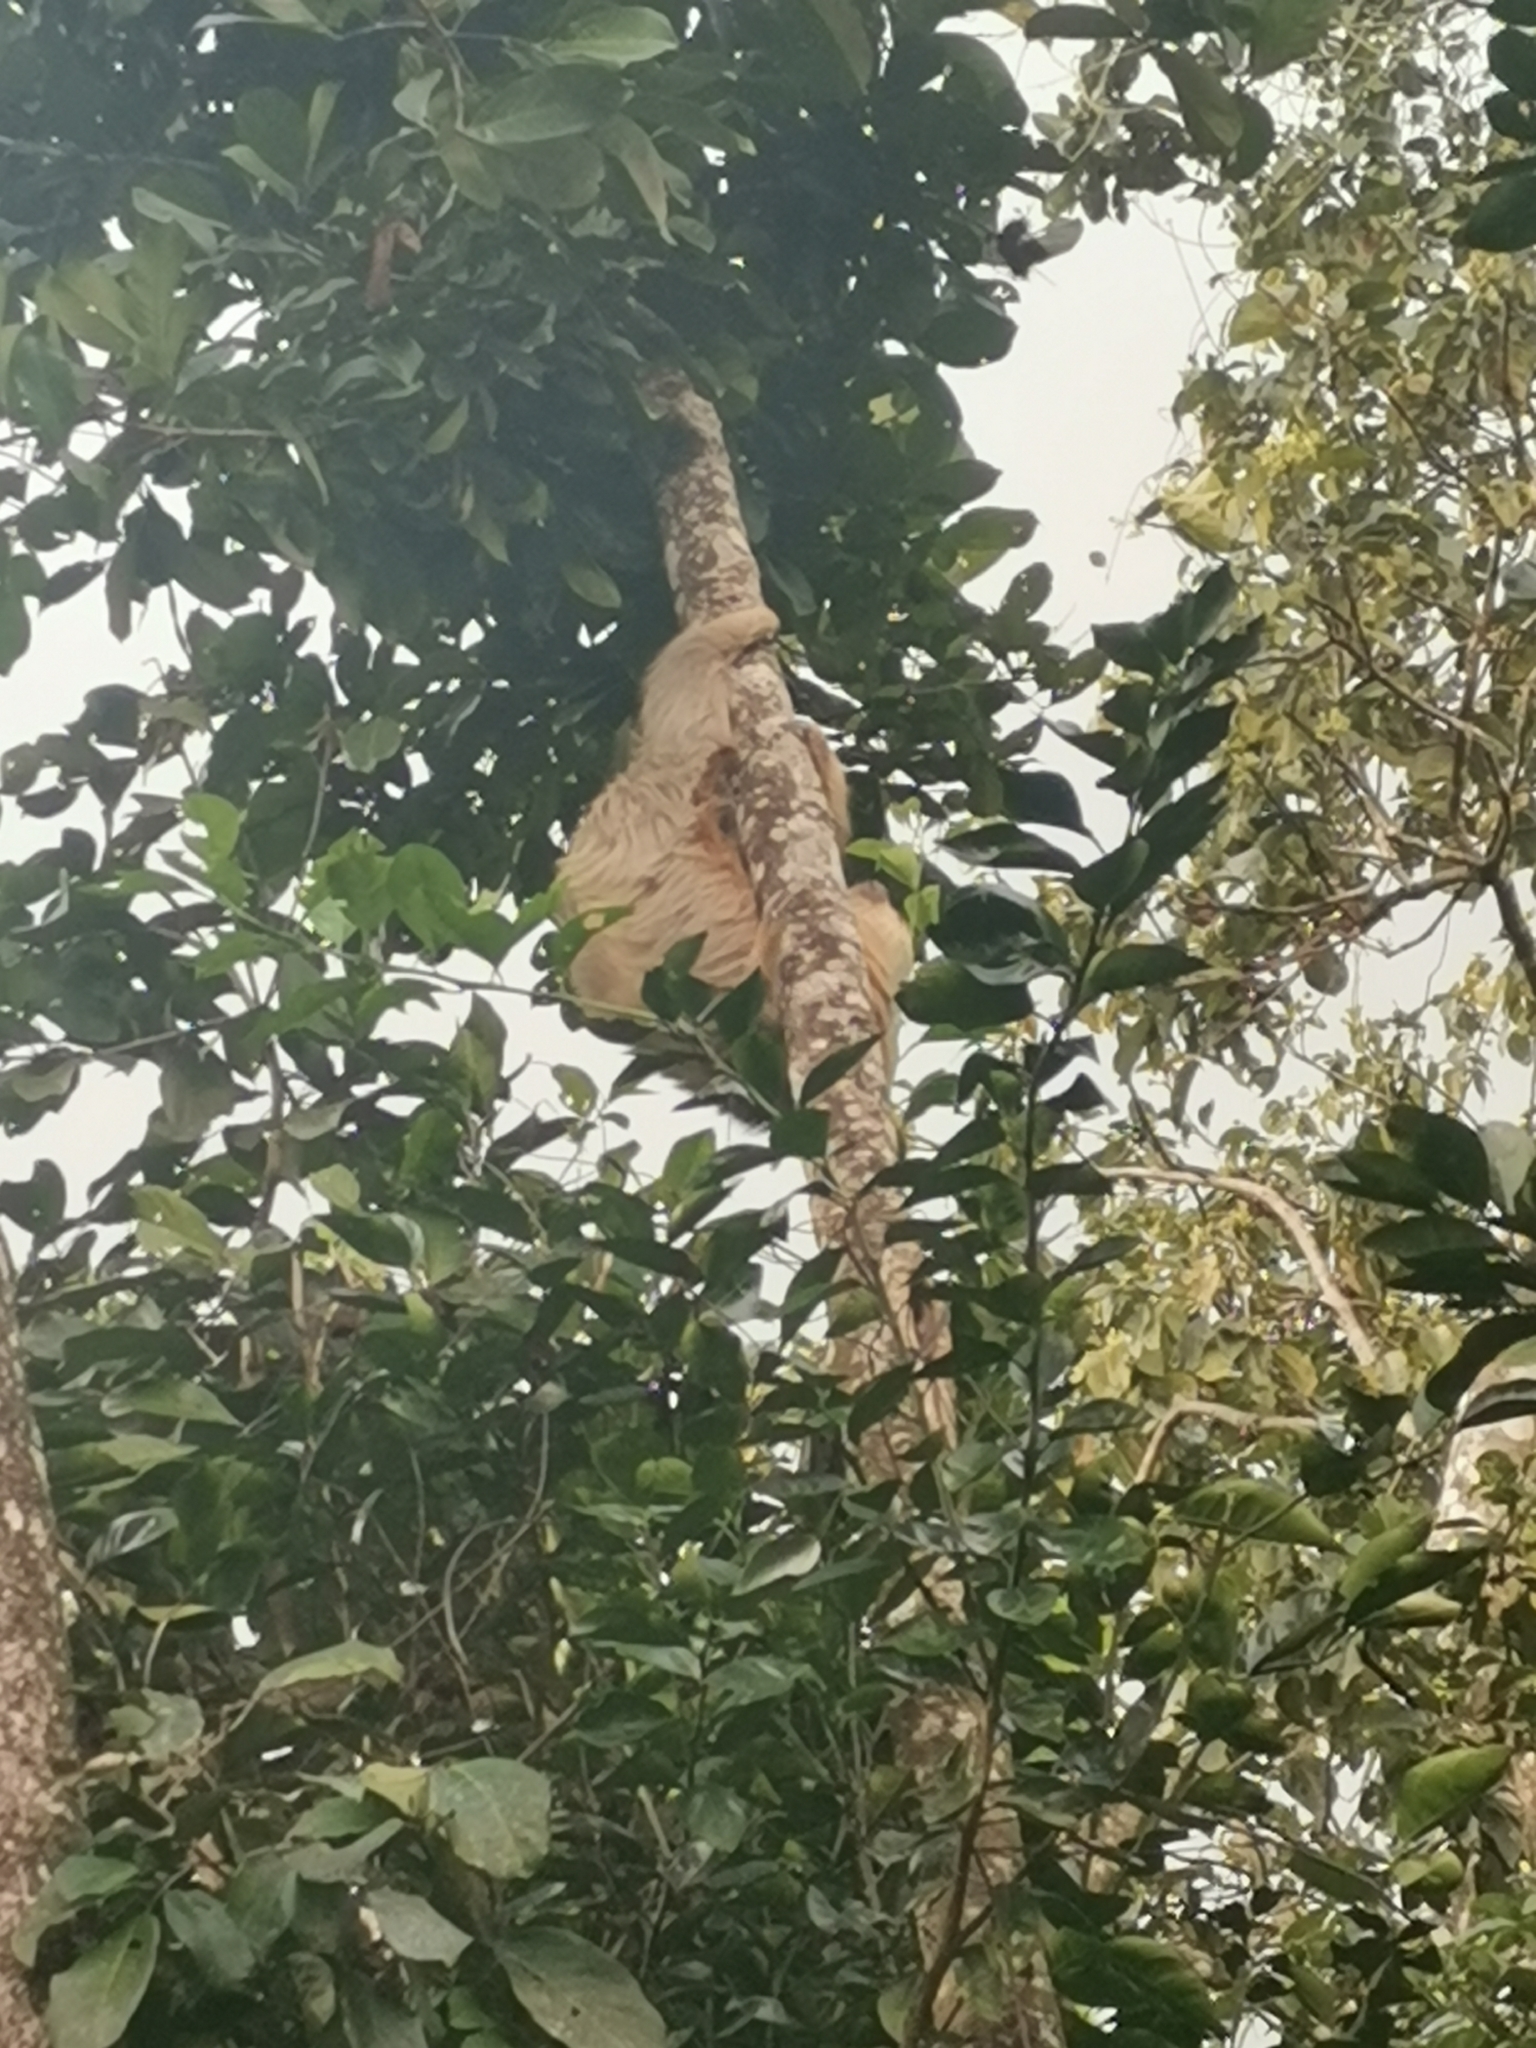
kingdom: Animalia
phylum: Chordata
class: Mammalia
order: Pilosa
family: Megalonychidae
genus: Choloepus
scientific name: Choloepus hoffmanni
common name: Hoffmann's two-toed sloth
